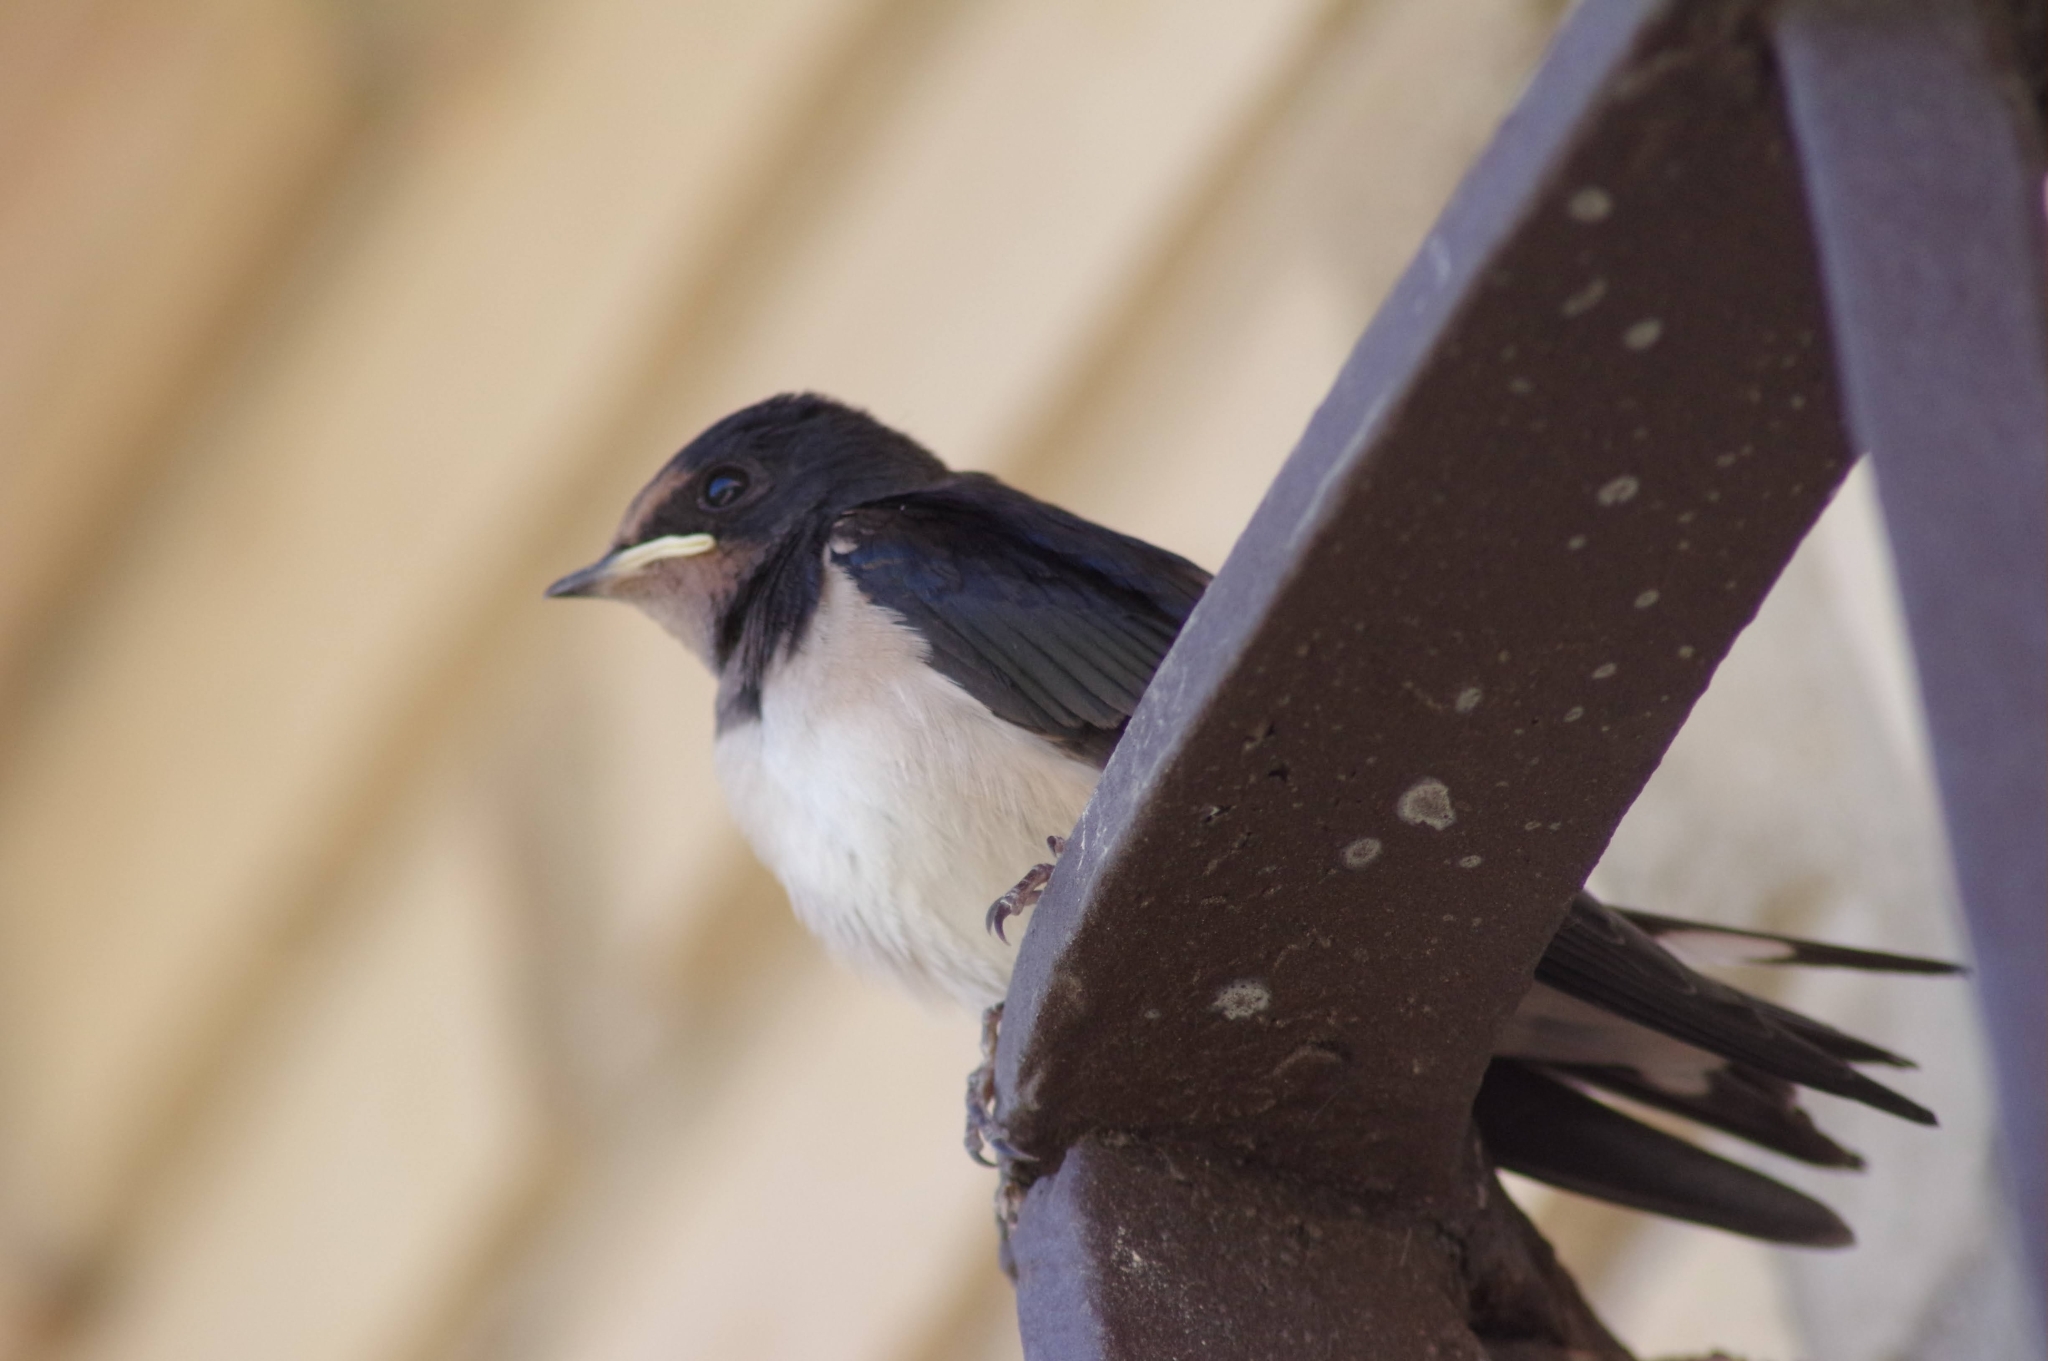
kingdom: Animalia
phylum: Chordata
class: Aves
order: Passeriformes
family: Hirundinidae
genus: Hirundo
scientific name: Hirundo rustica
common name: Barn swallow
